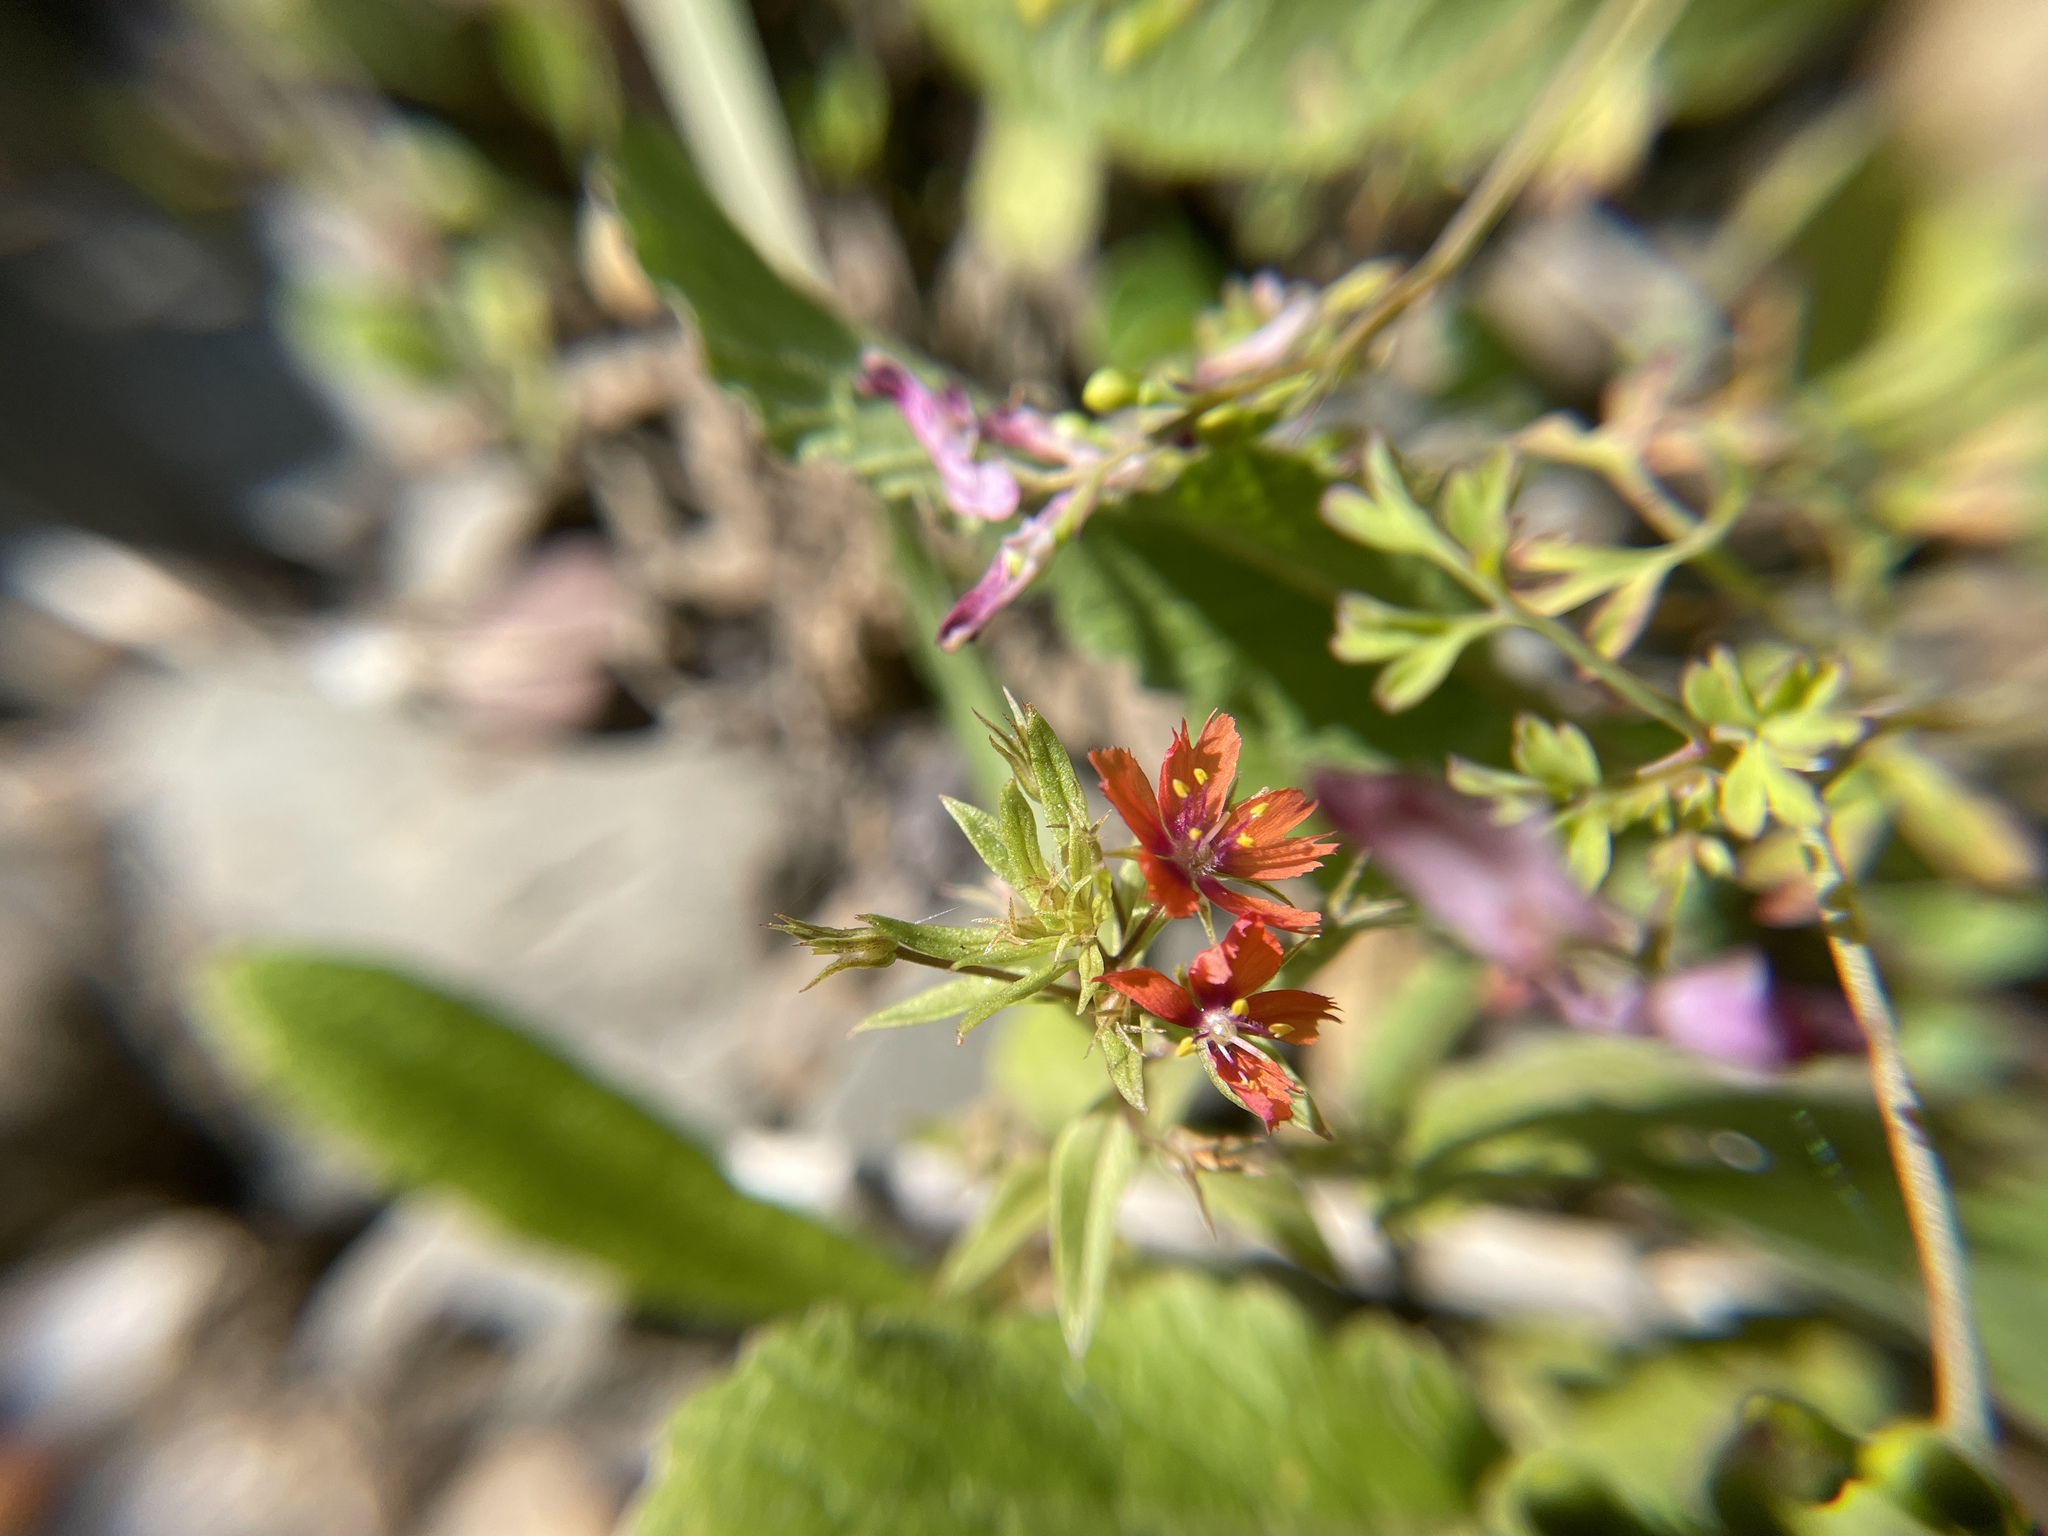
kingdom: Plantae
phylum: Tracheophyta
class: Magnoliopsida
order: Ericales
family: Primulaceae
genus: Lysimachia
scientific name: Lysimachia arvensis
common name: Scarlet pimpernel
